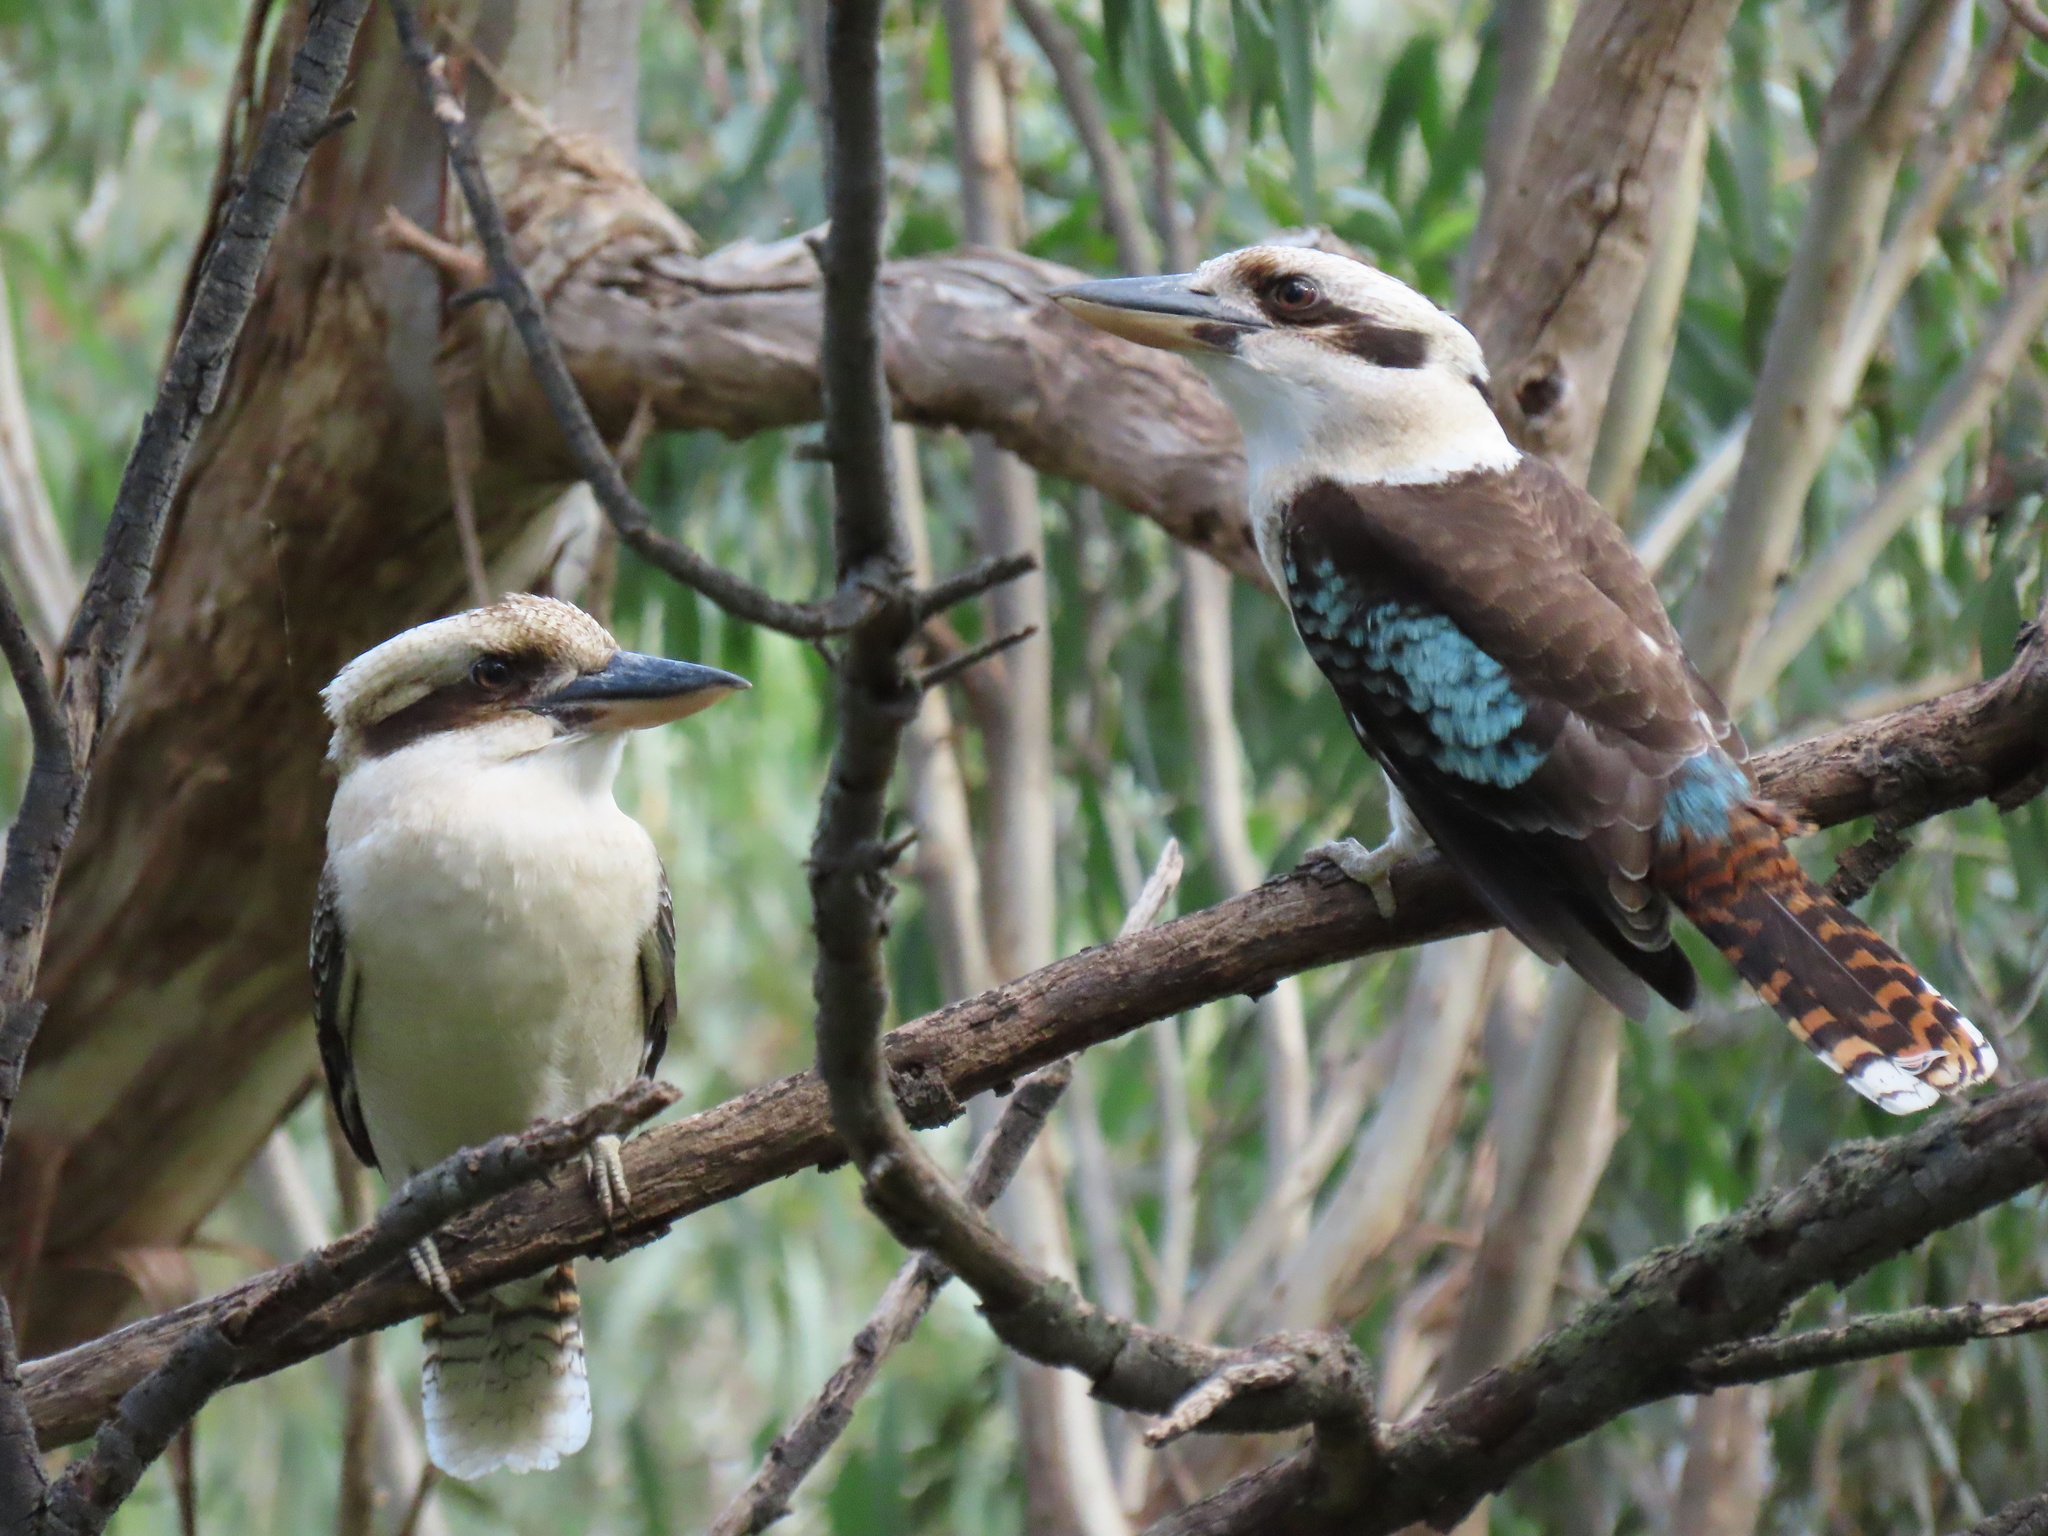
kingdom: Animalia
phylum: Chordata
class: Aves
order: Coraciiformes
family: Alcedinidae
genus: Dacelo
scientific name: Dacelo novaeguineae
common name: Laughing kookaburra
